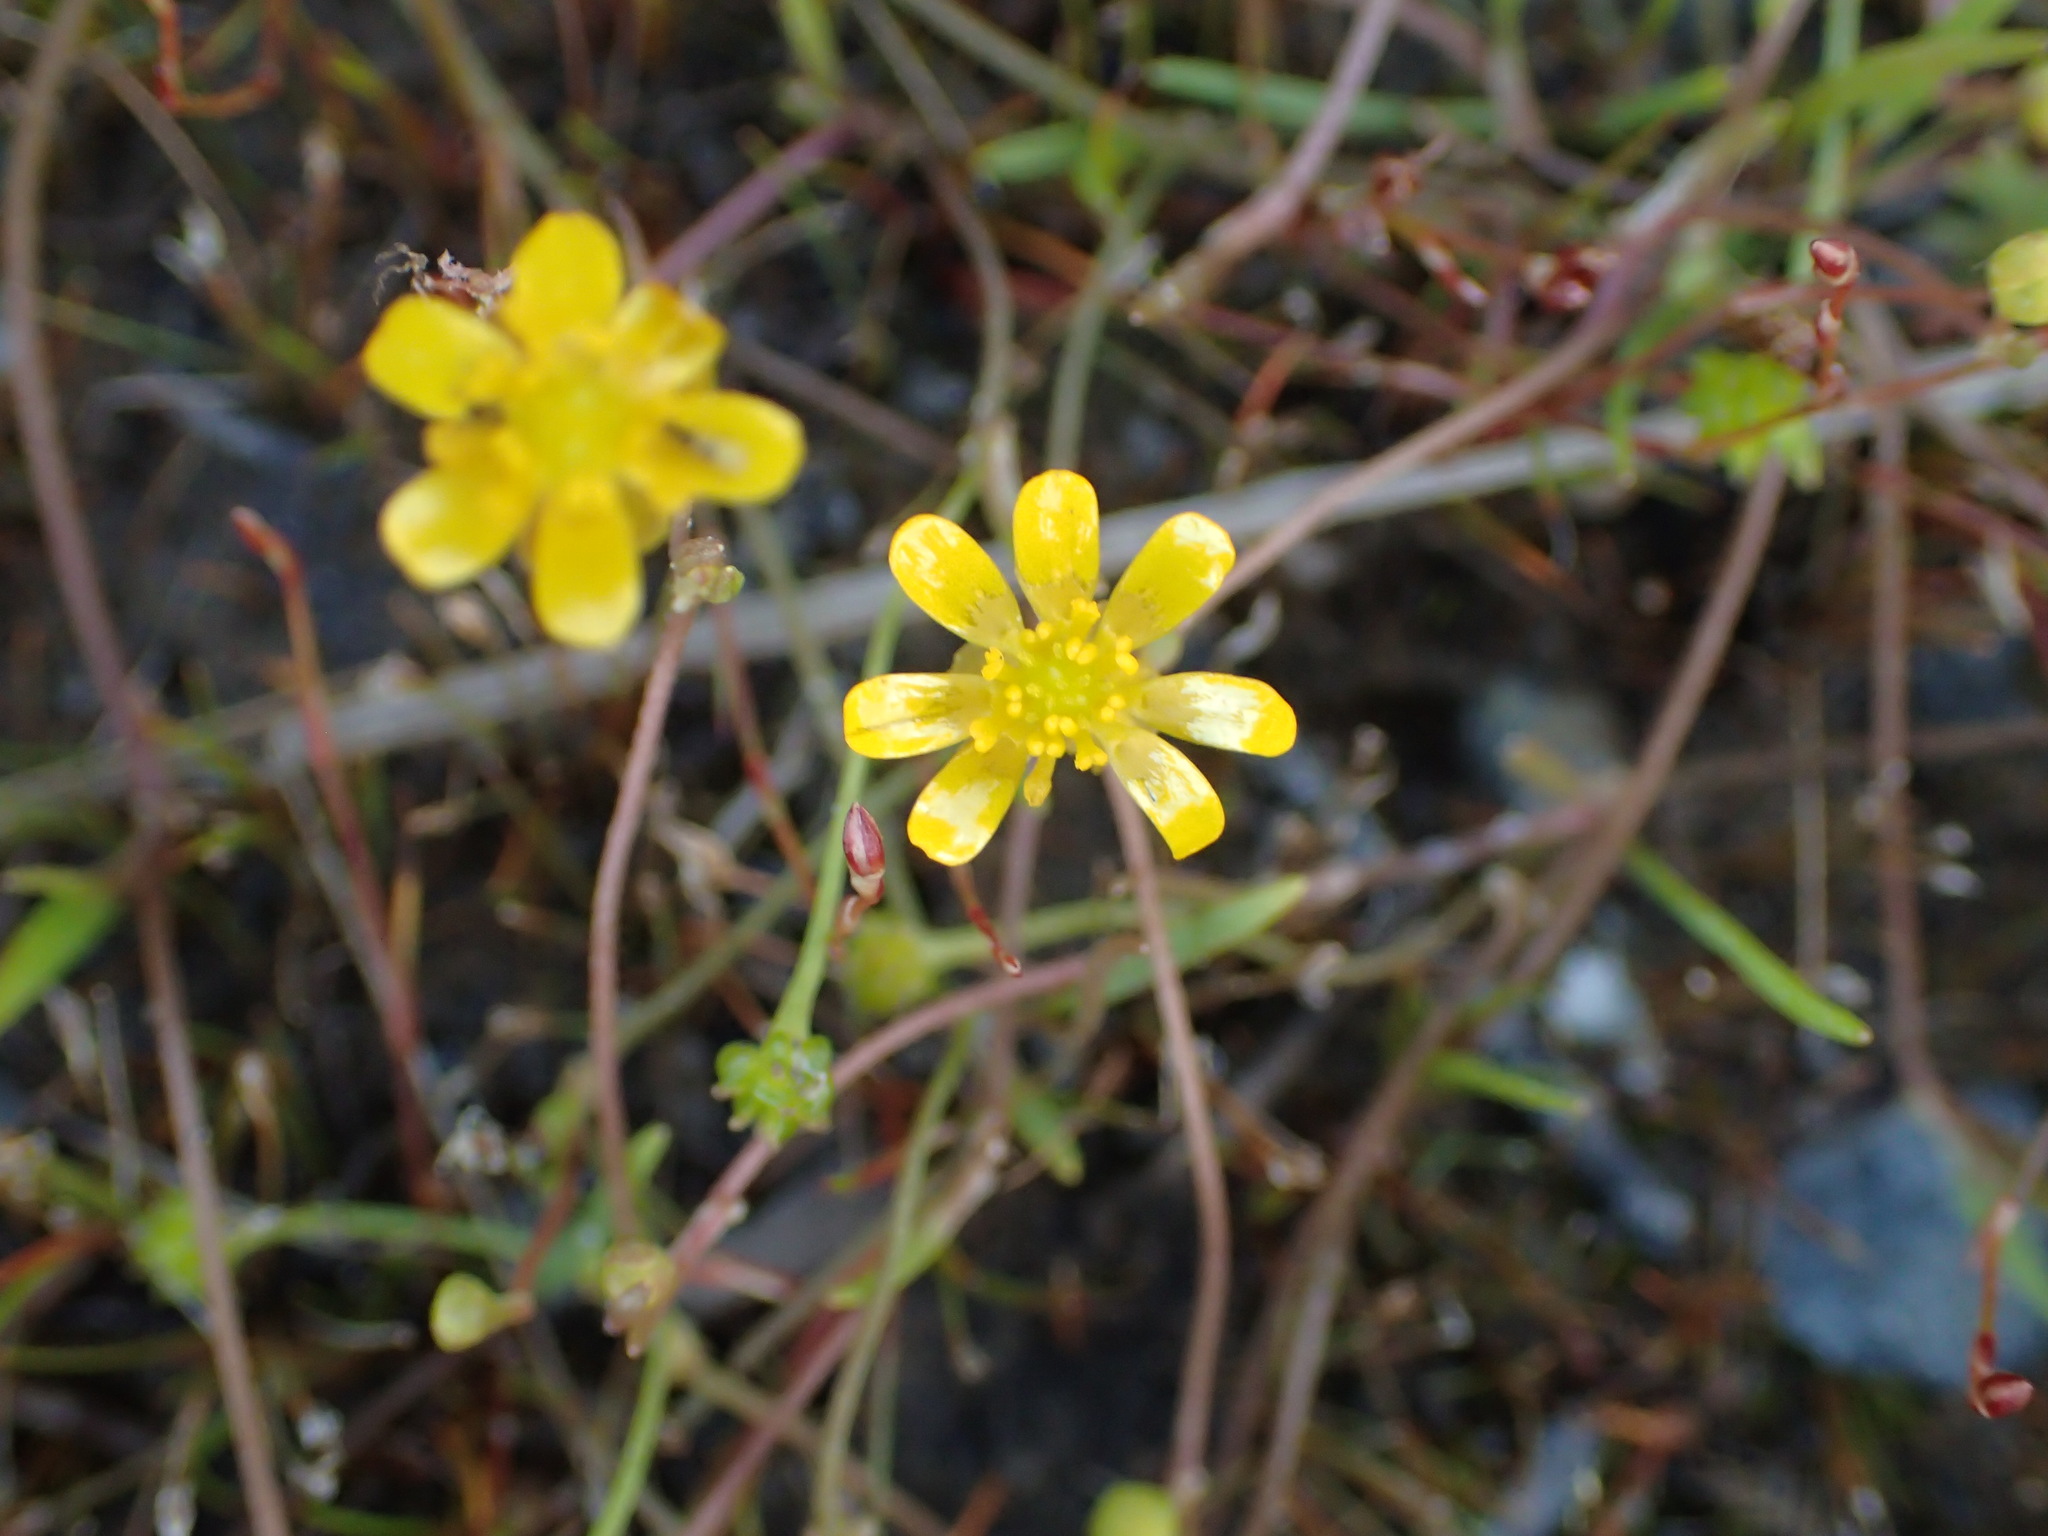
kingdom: Plantae
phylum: Tracheophyta
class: Magnoliopsida
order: Ranunculales
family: Ranunculaceae
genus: Ranunculus
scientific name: Ranunculus flammula
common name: Lesser spearwort
